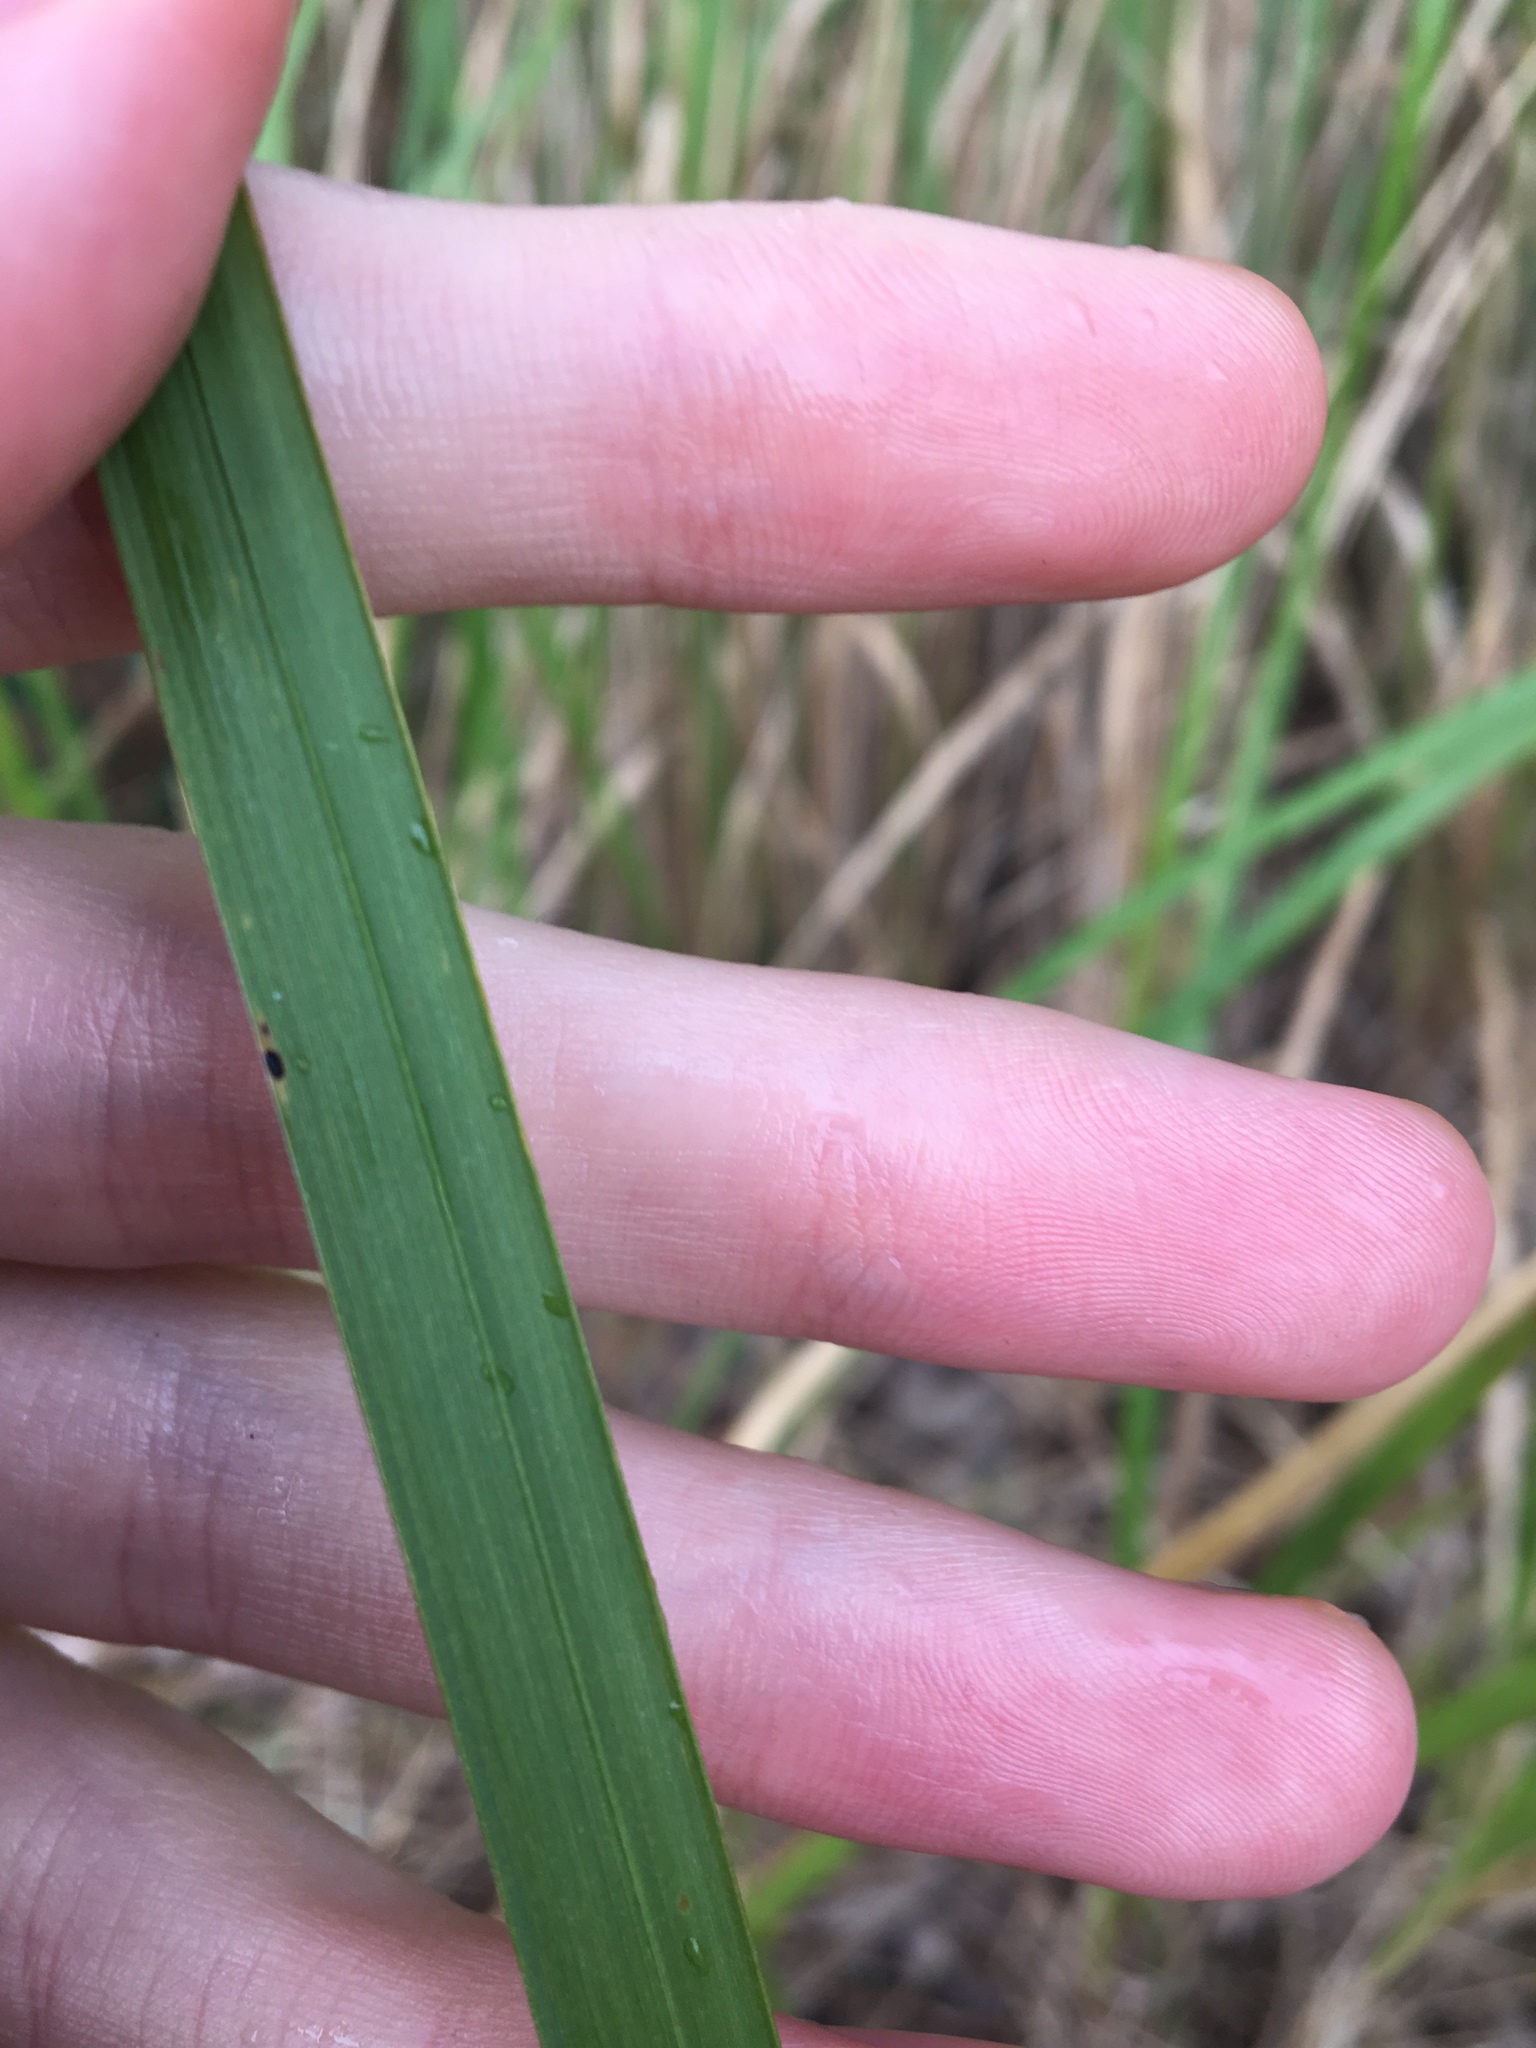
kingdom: Plantae
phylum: Tracheophyta
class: Liliopsida
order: Poales
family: Poaceae
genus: Imperata
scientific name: Imperata cylindrica
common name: Cogongrass
